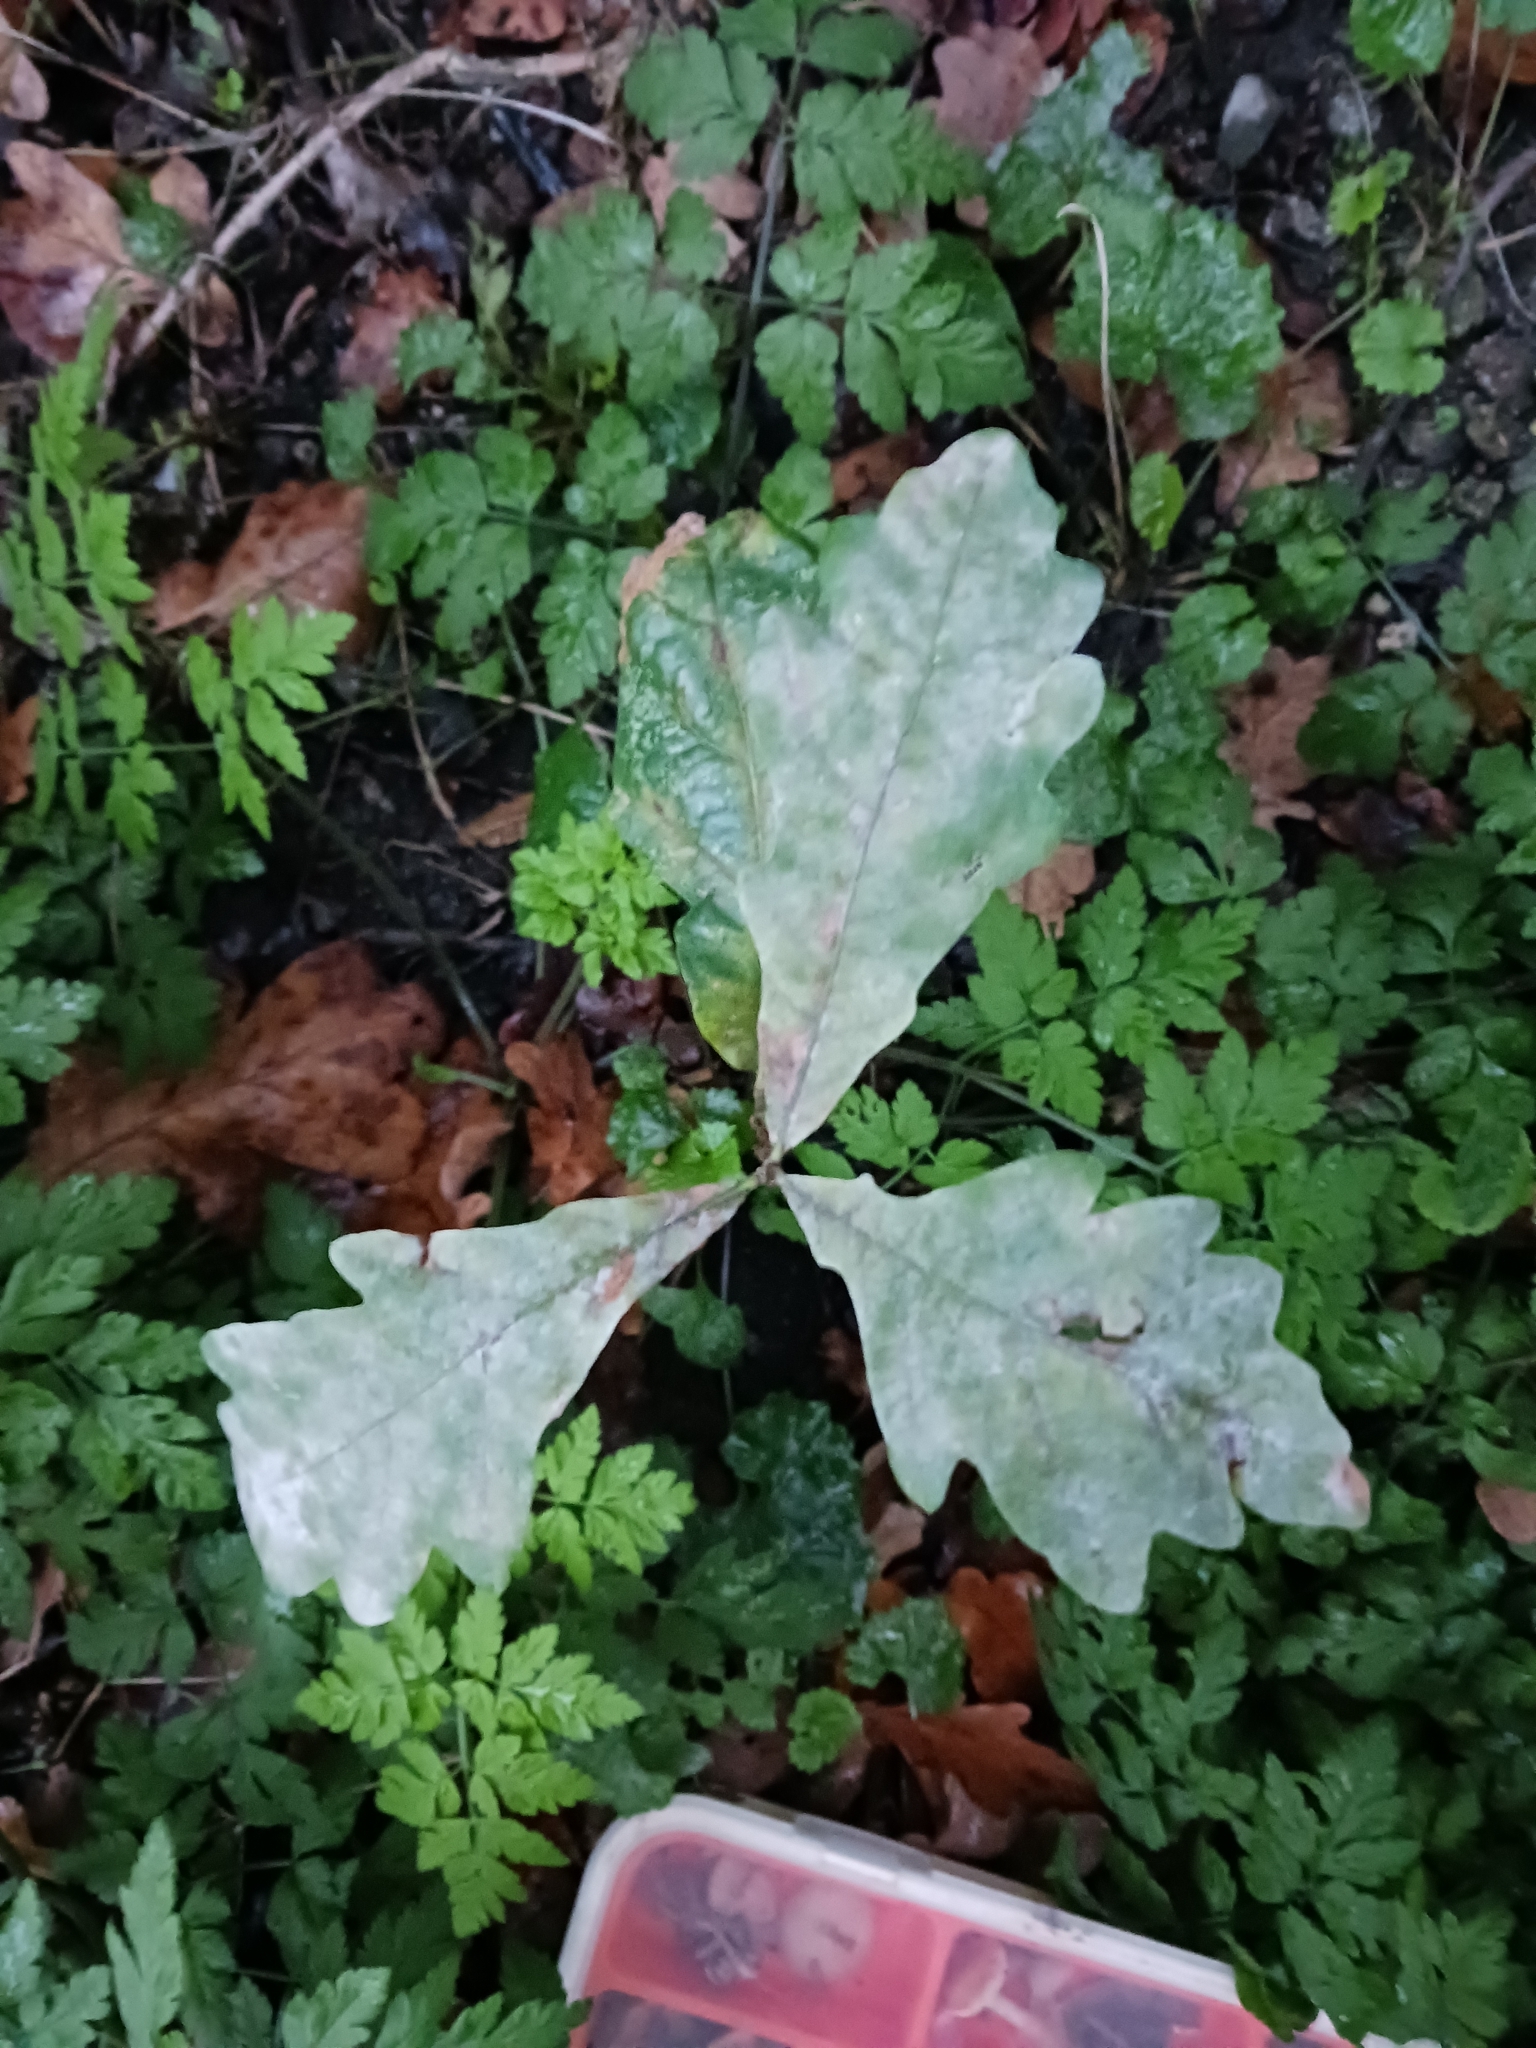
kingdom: Fungi
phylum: Ascomycota
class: Leotiomycetes
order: Helotiales
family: Erysiphaceae
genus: Erysiphe
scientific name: Erysiphe
